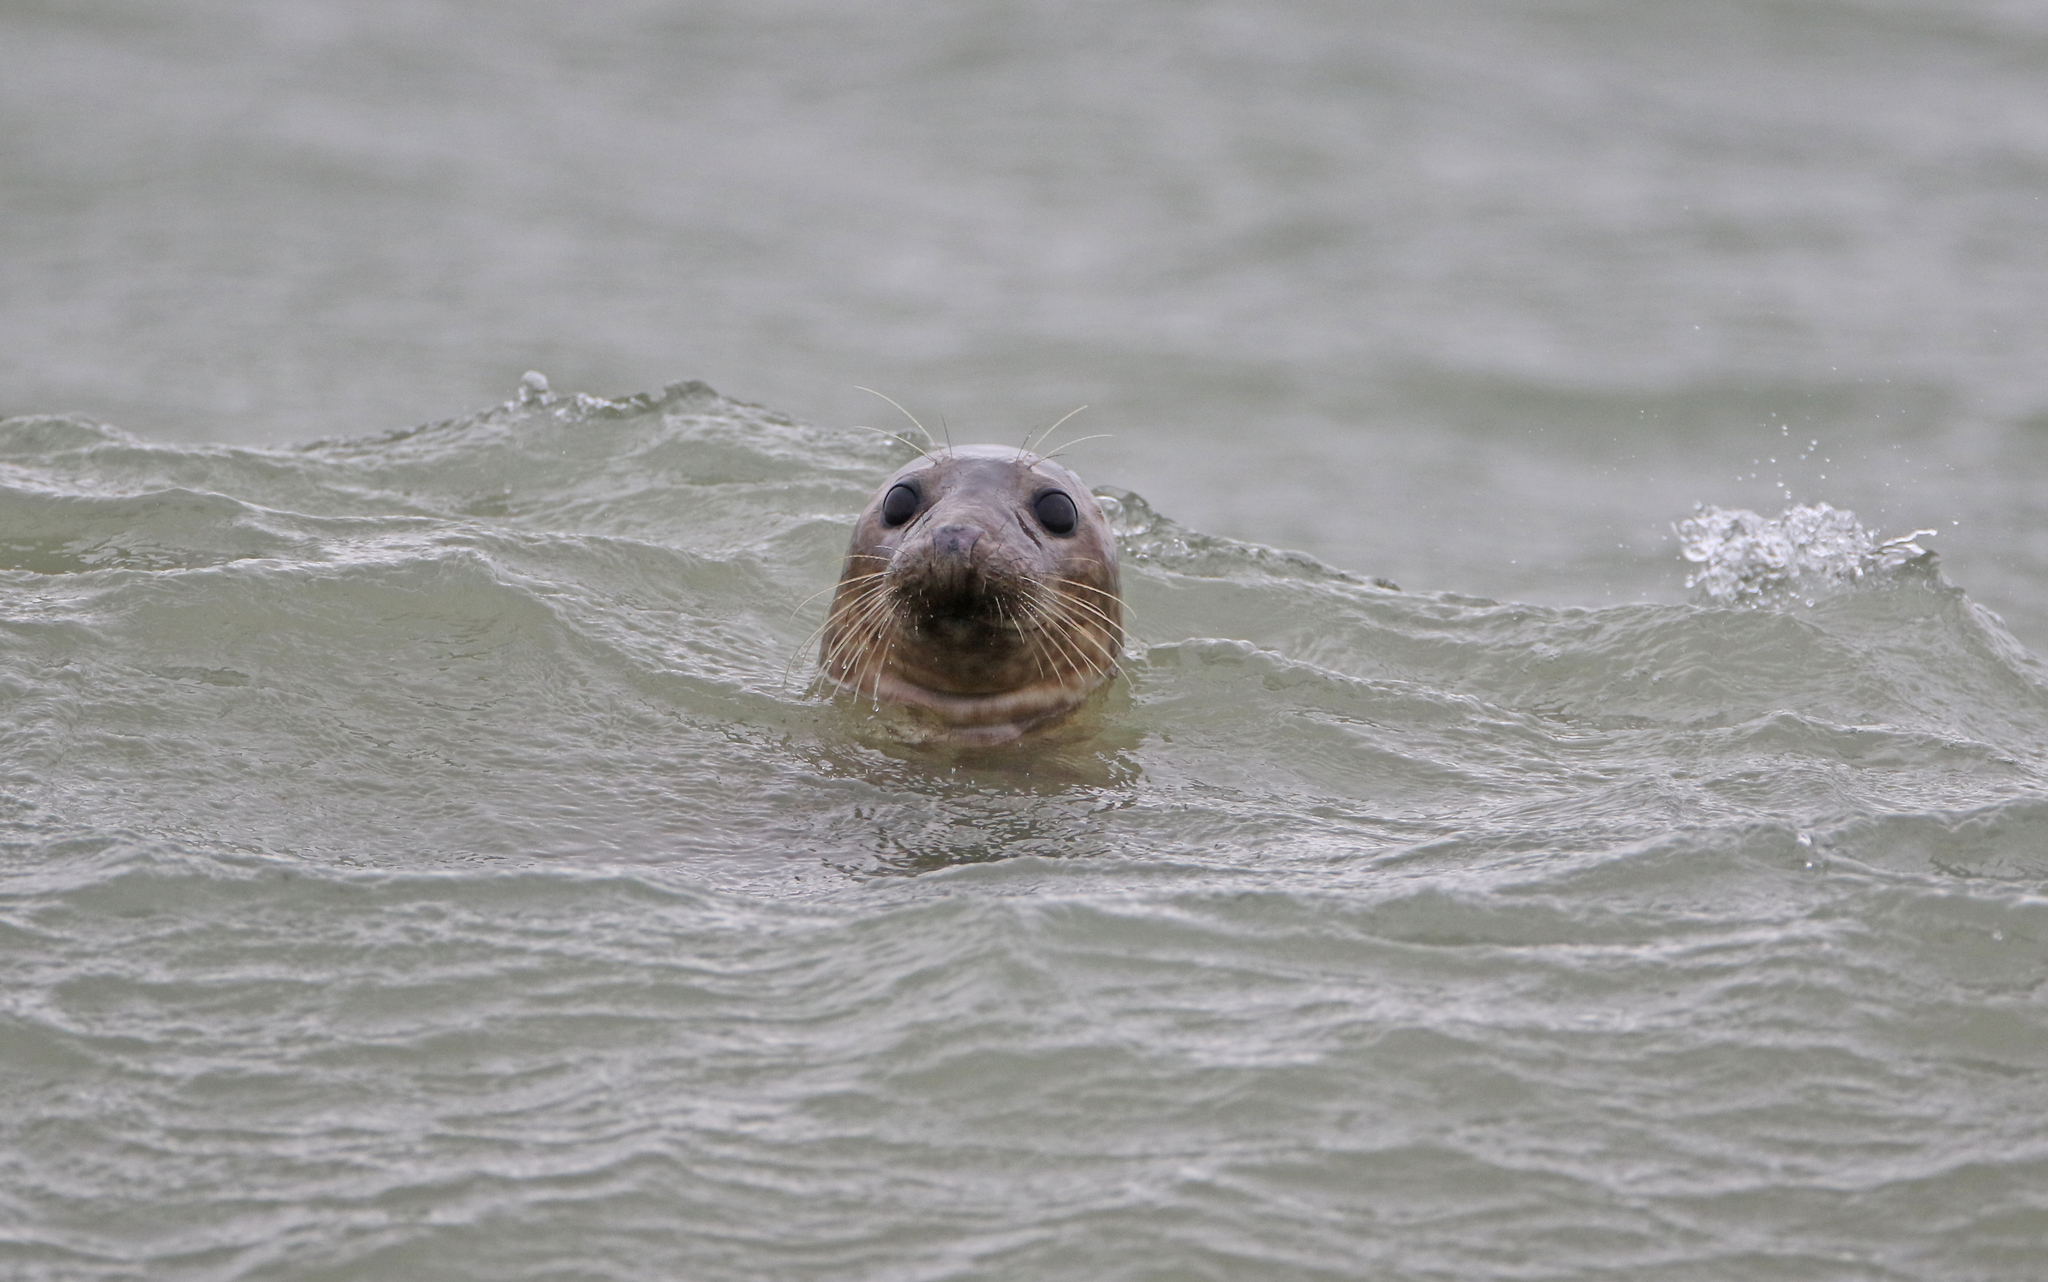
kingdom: Animalia
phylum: Chordata
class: Mammalia
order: Carnivora
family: Phocidae
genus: Halichoerus
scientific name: Halichoerus grypus
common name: Grey seal
